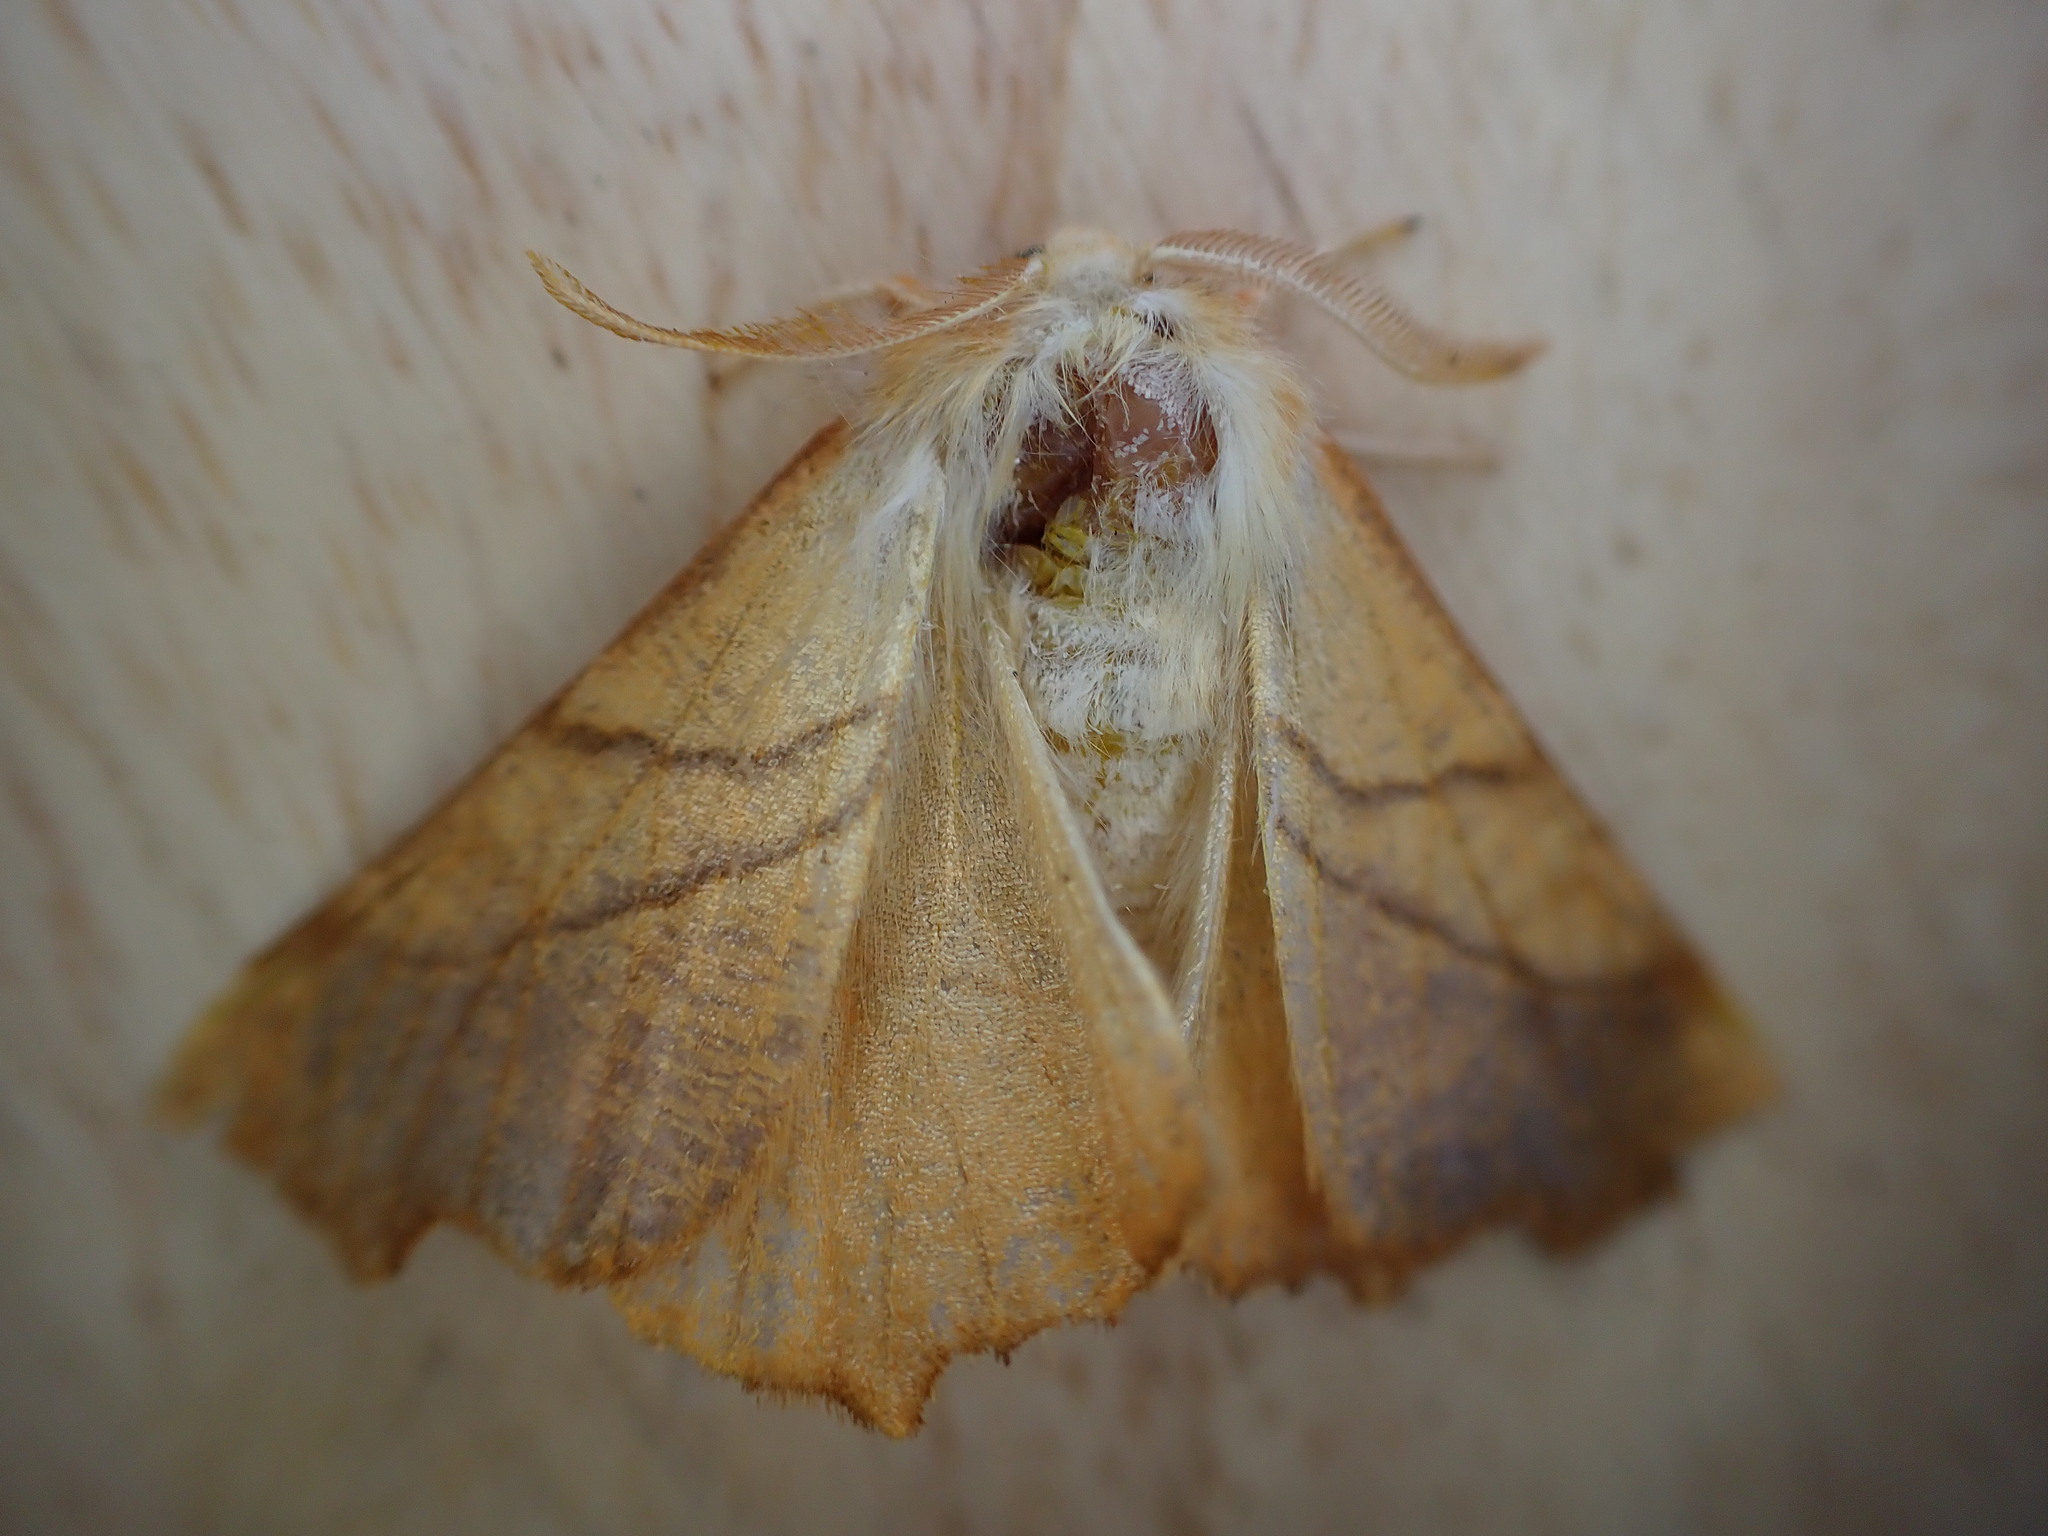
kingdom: Animalia
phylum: Arthropoda
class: Insecta
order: Lepidoptera
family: Geometridae
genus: Ennomos
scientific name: Ennomos fuscantaria
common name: Dusky thorn
